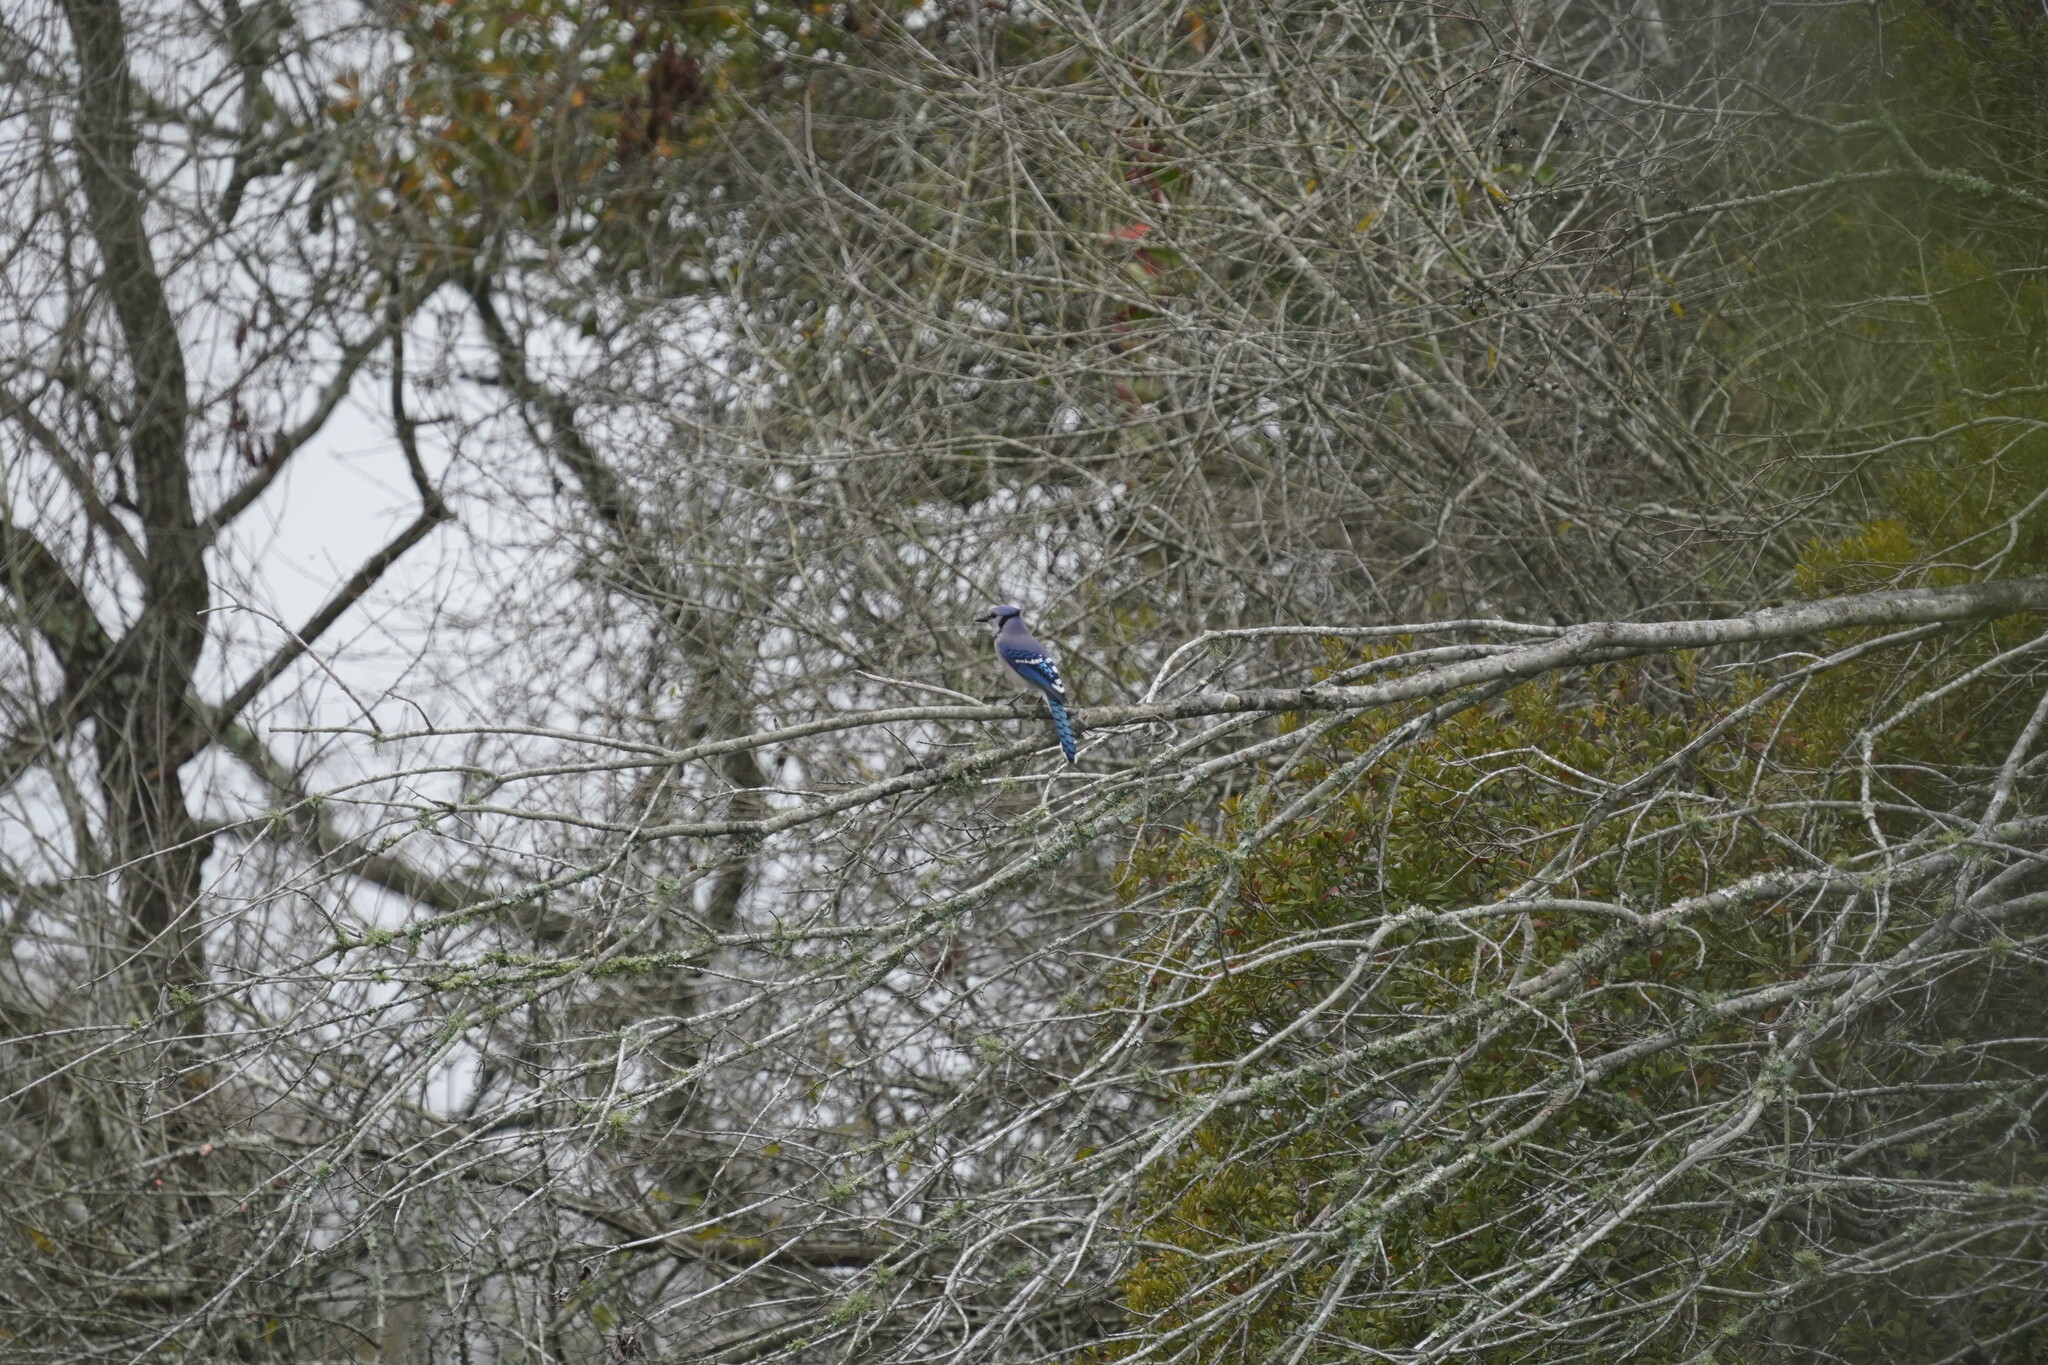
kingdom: Animalia
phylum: Chordata
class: Aves
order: Passeriformes
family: Corvidae
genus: Cyanocitta
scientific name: Cyanocitta cristata
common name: Blue jay
